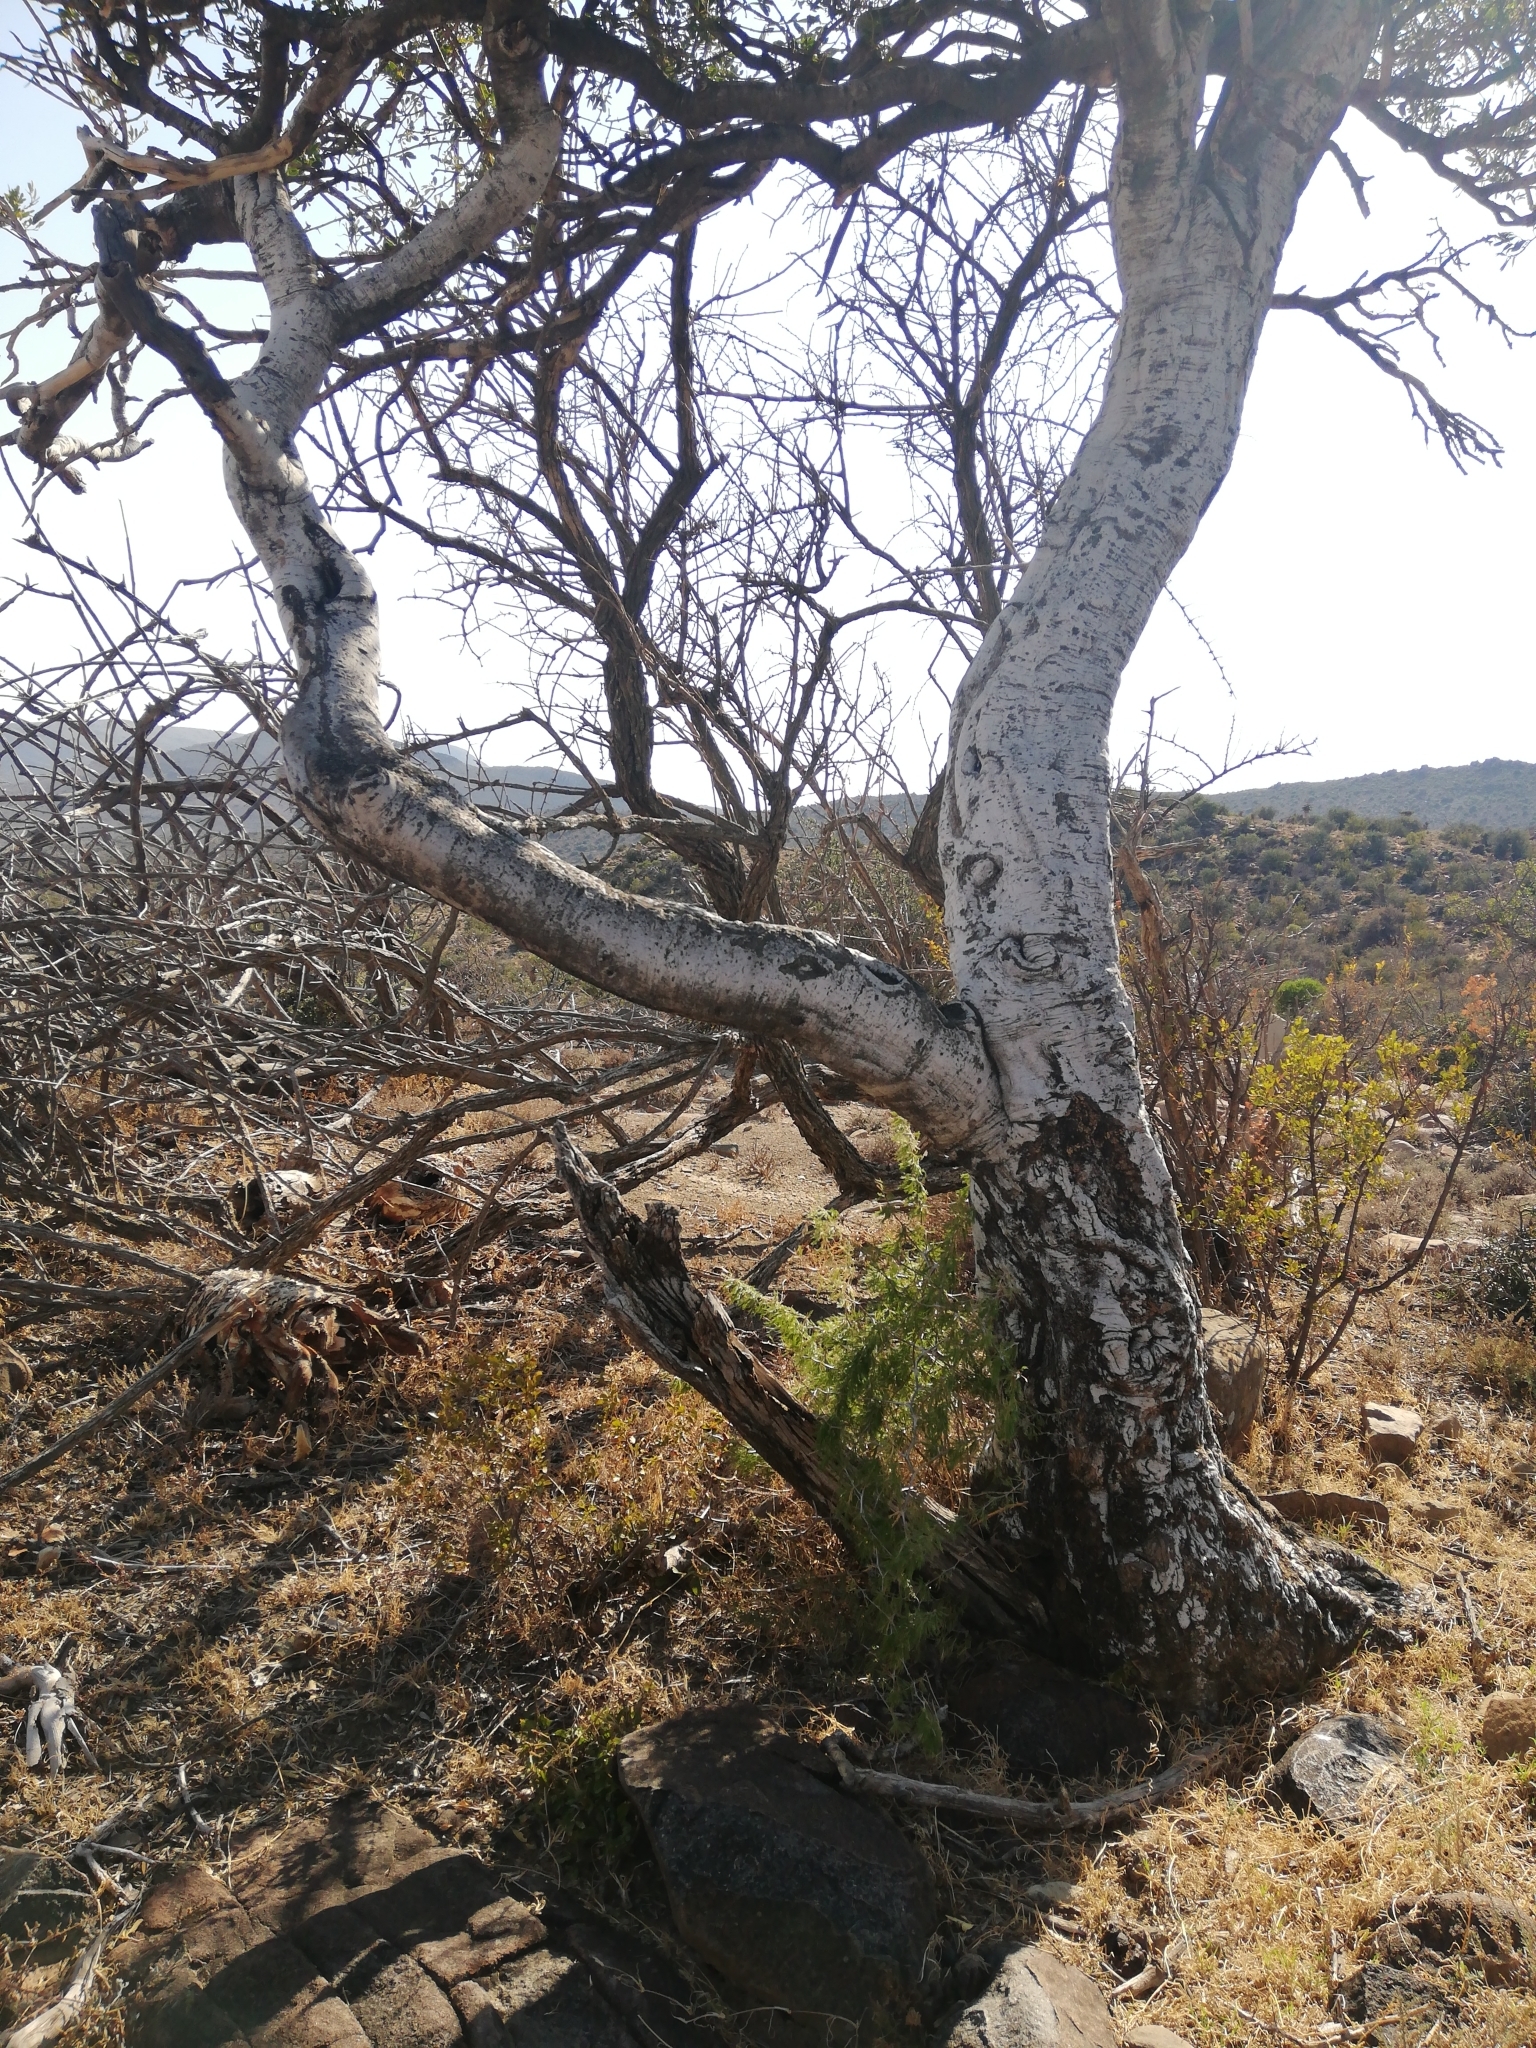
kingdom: Plantae
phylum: Tracheophyta
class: Magnoliopsida
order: Brassicales
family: Capparaceae
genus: Boscia
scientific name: Boscia oleoides
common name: Karoo shepherd tree
